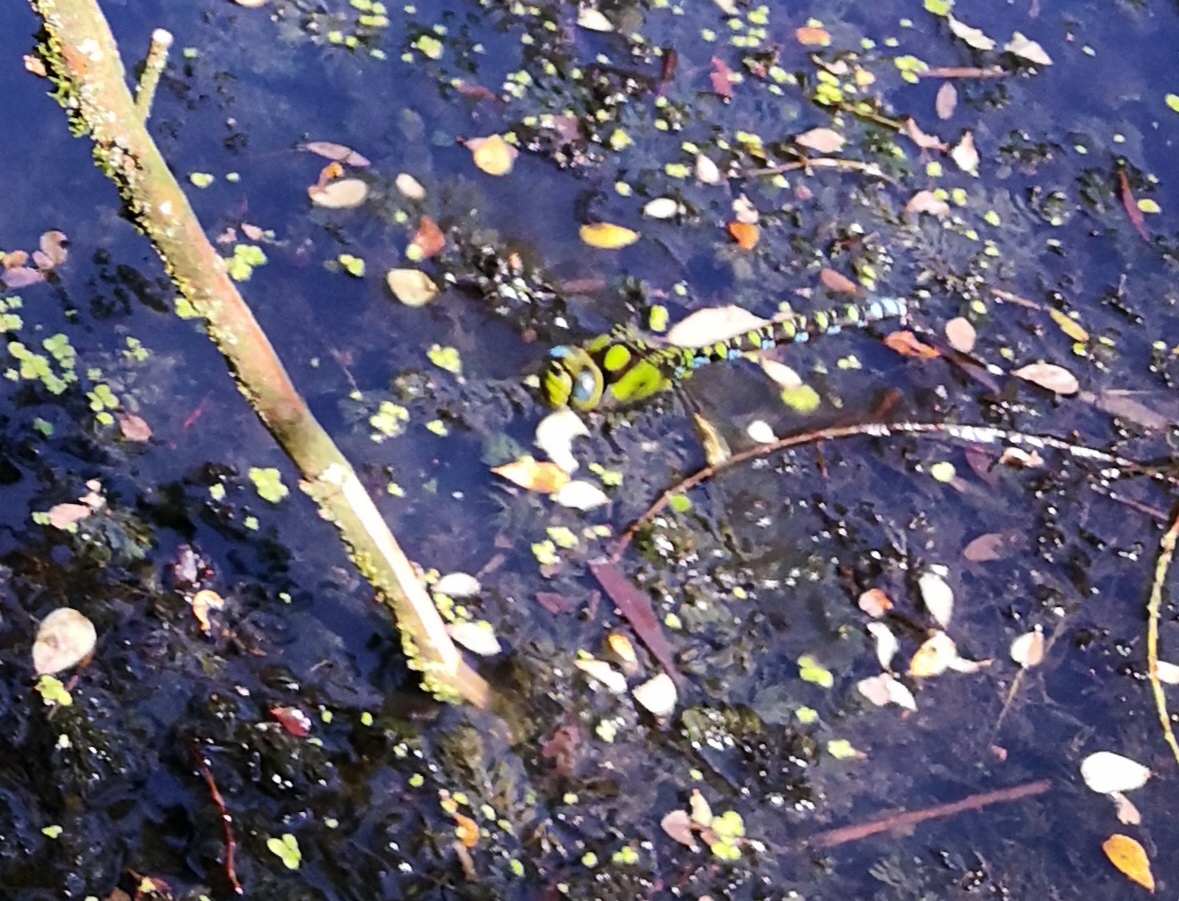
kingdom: Animalia
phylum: Arthropoda
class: Insecta
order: Odonata
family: Aeshnidae
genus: Aeshna
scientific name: Aeshna cyanea
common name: Southern hawker
